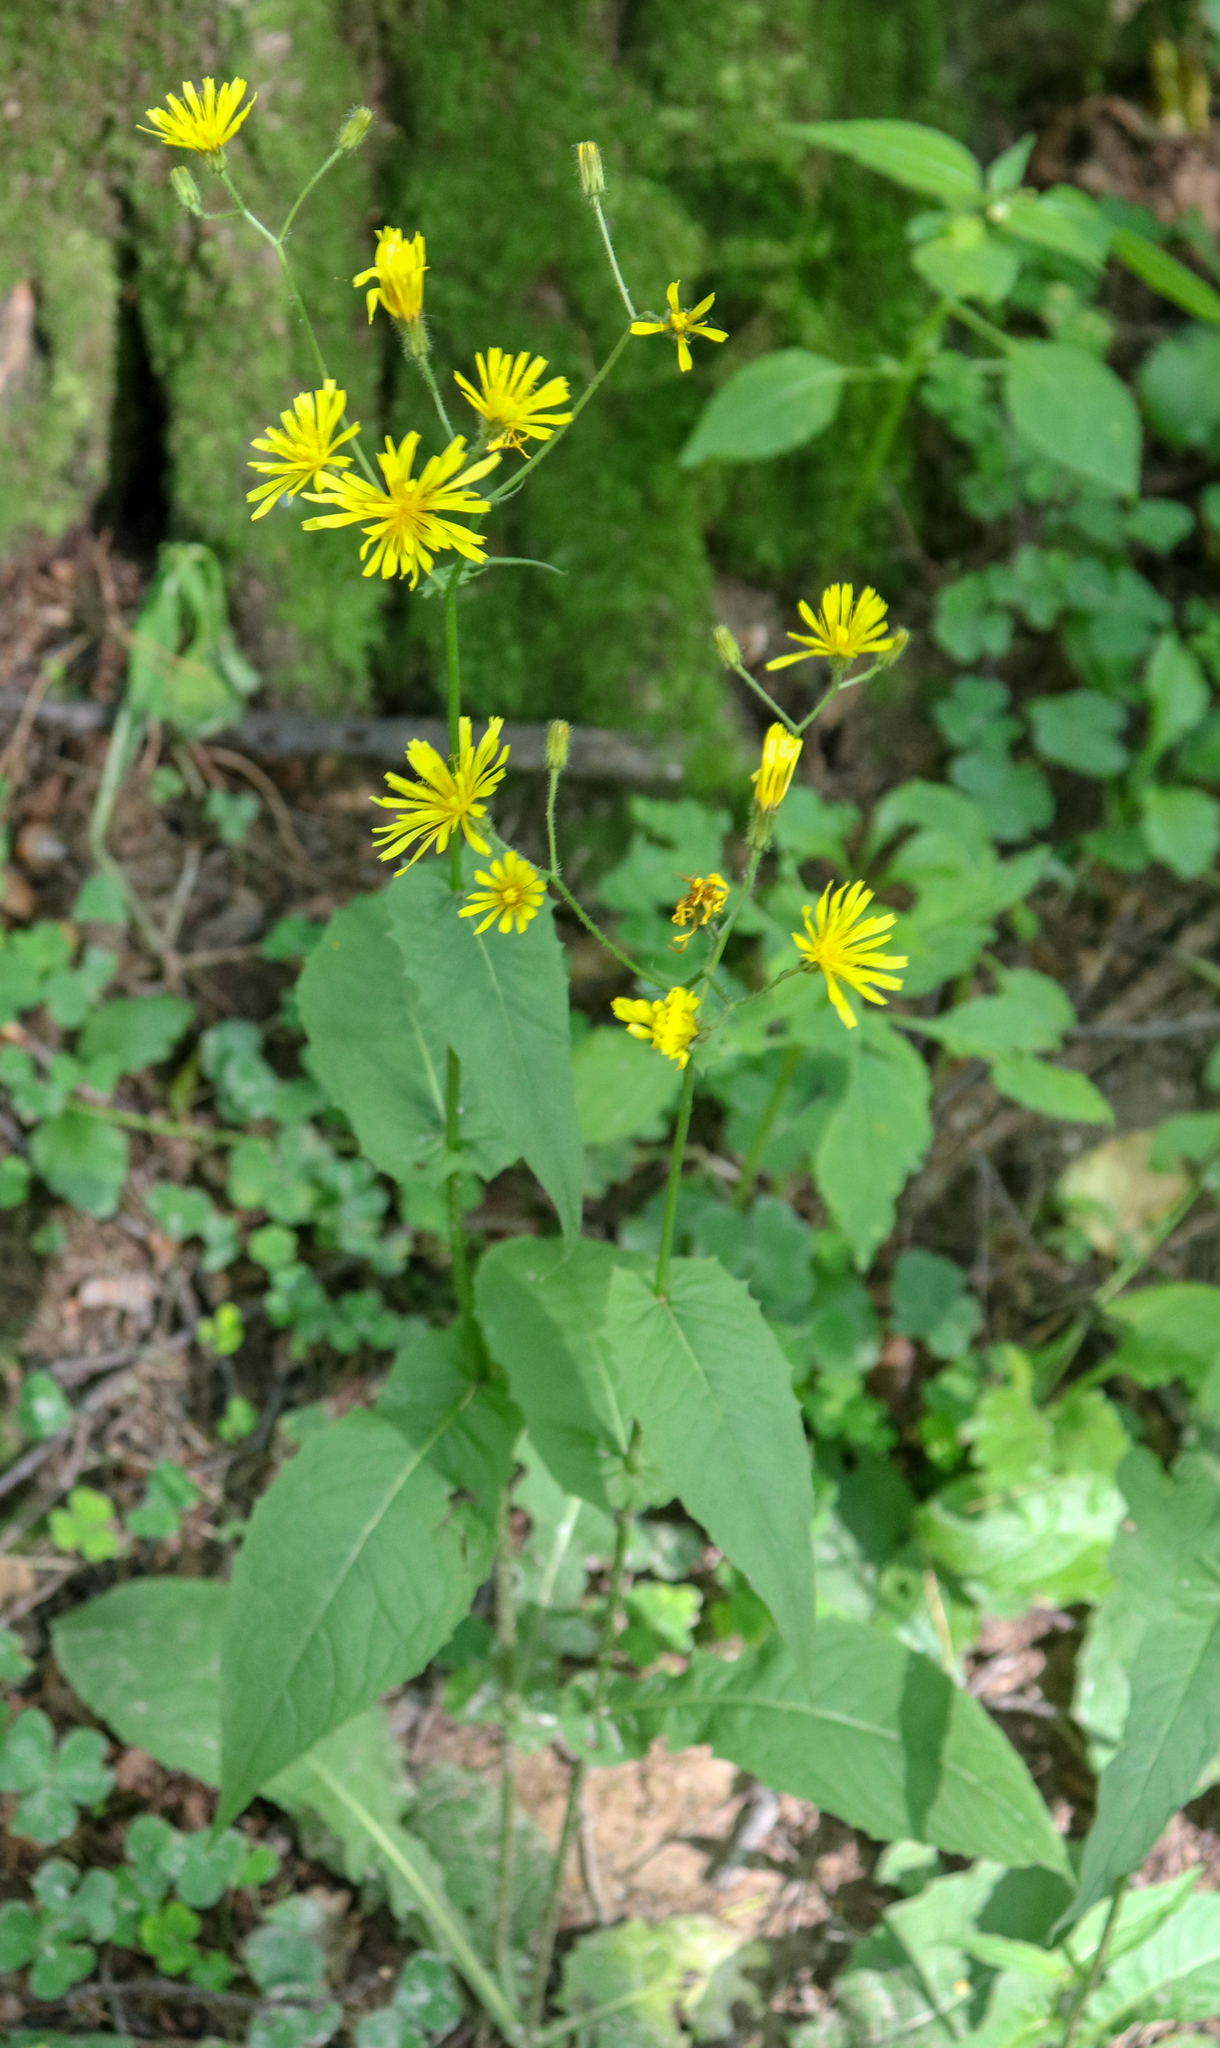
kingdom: Plantae
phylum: Tracheophyta
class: Magnoliopsida
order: Asterales
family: Asteraceae
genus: Crepis
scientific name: Crepis paludosa
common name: Marsh hawk's-beard
